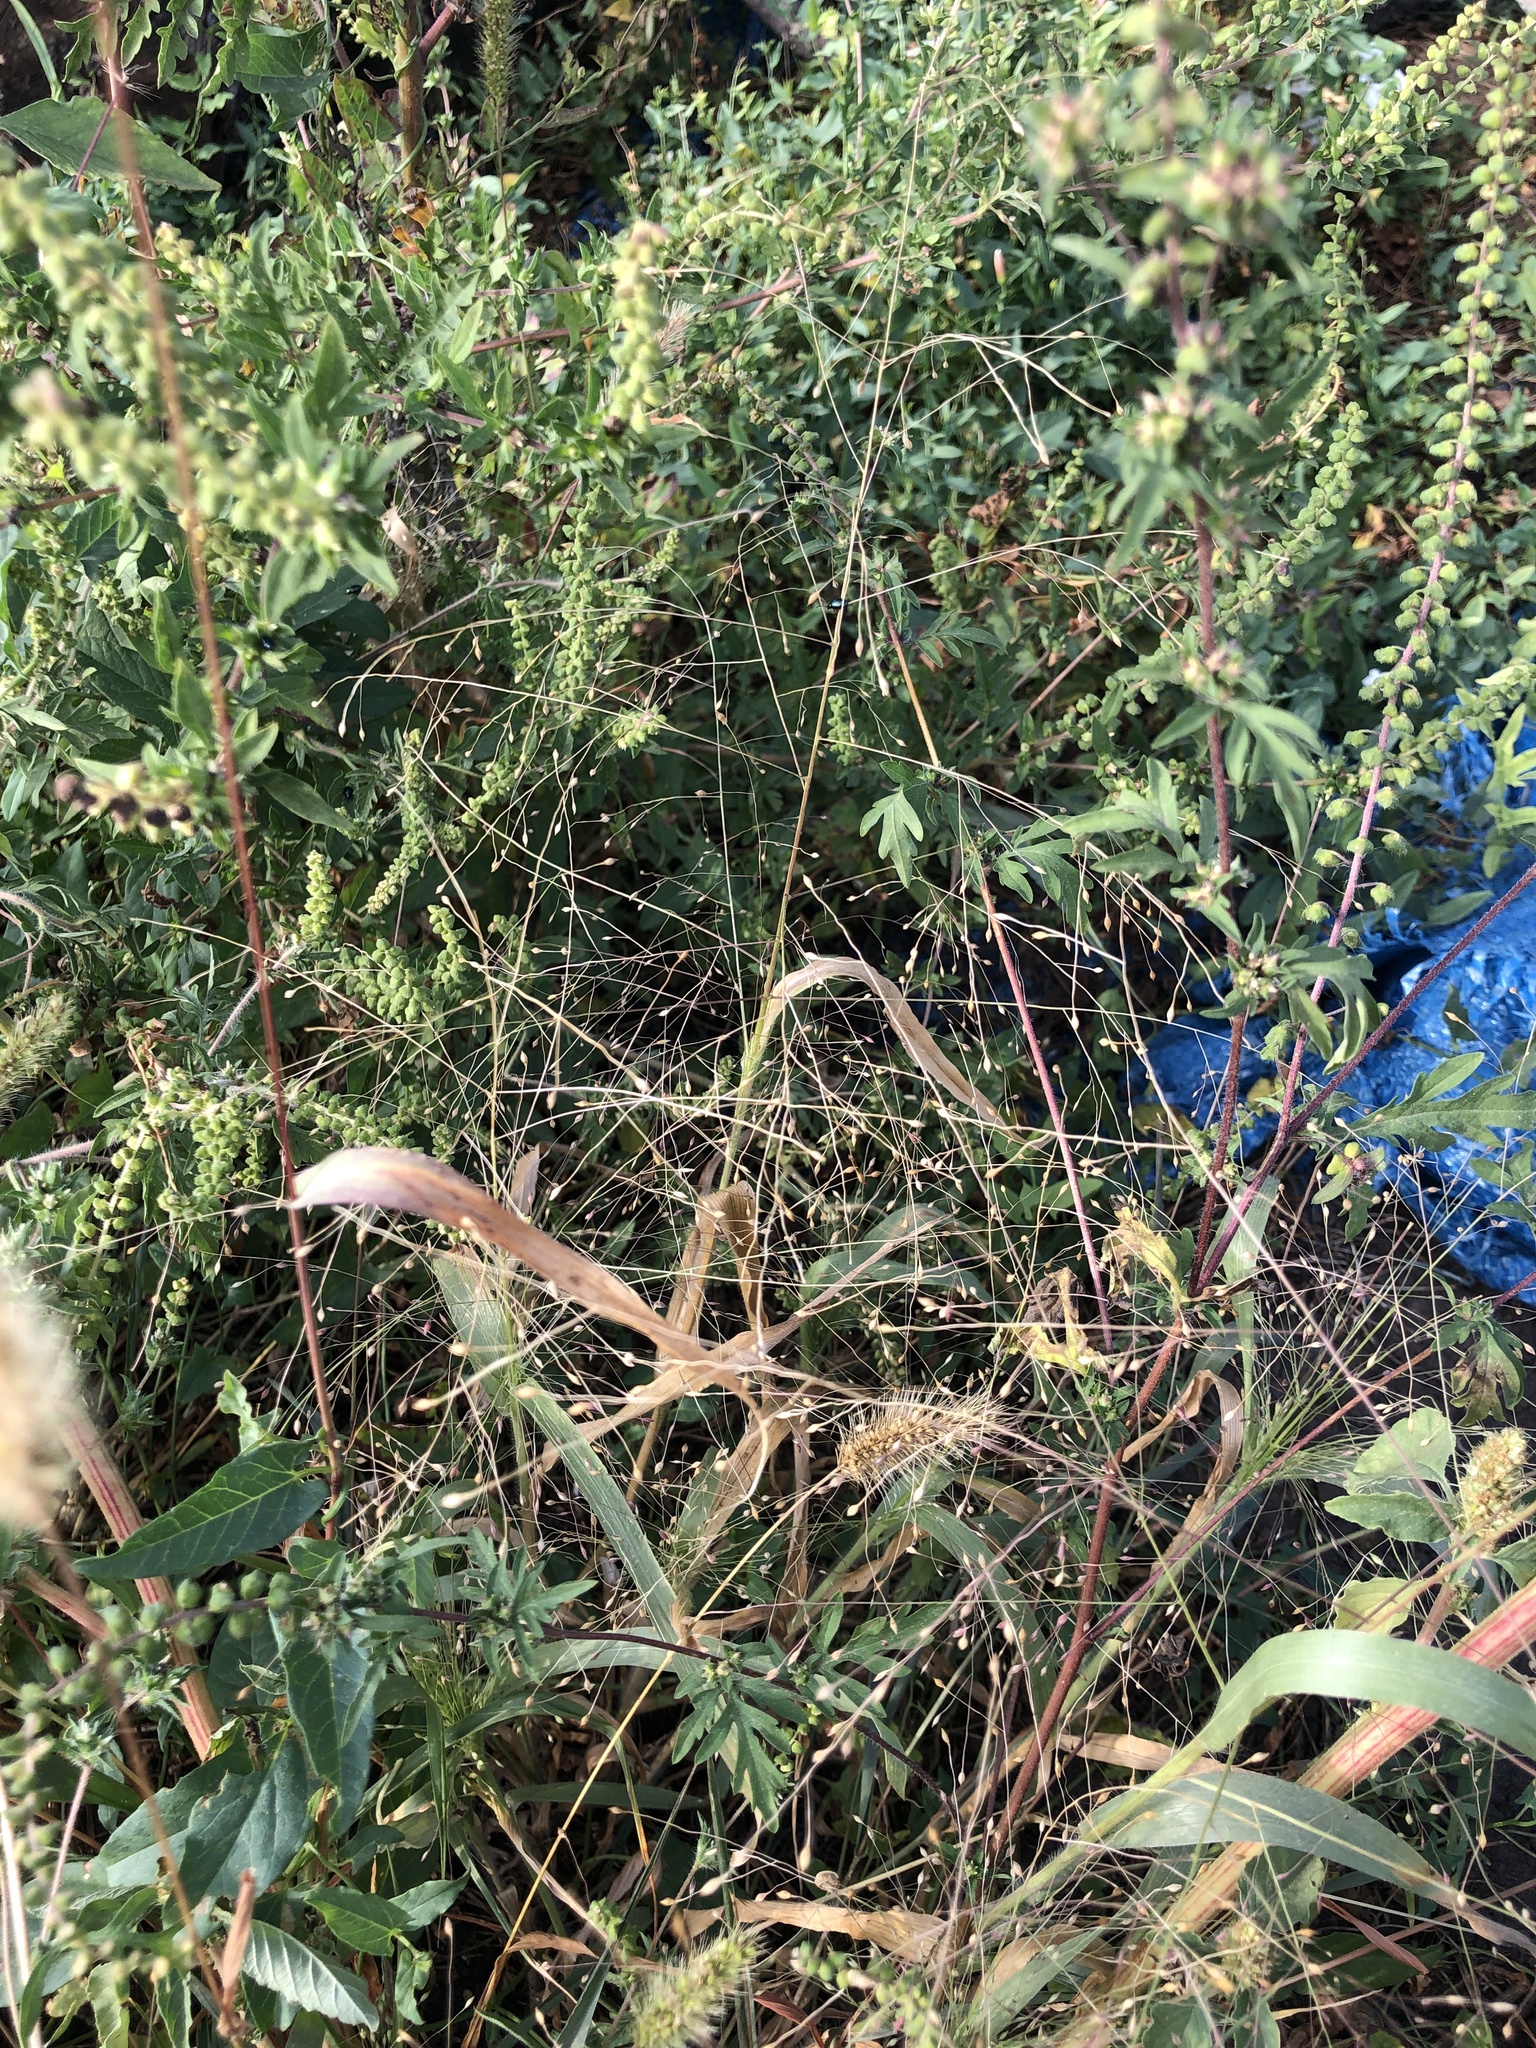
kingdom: Plantae
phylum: Tracheophyta
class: Liliopsida
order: Poales
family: Poaceae
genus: Panicum
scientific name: Panicum capillare
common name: Witch-grass
